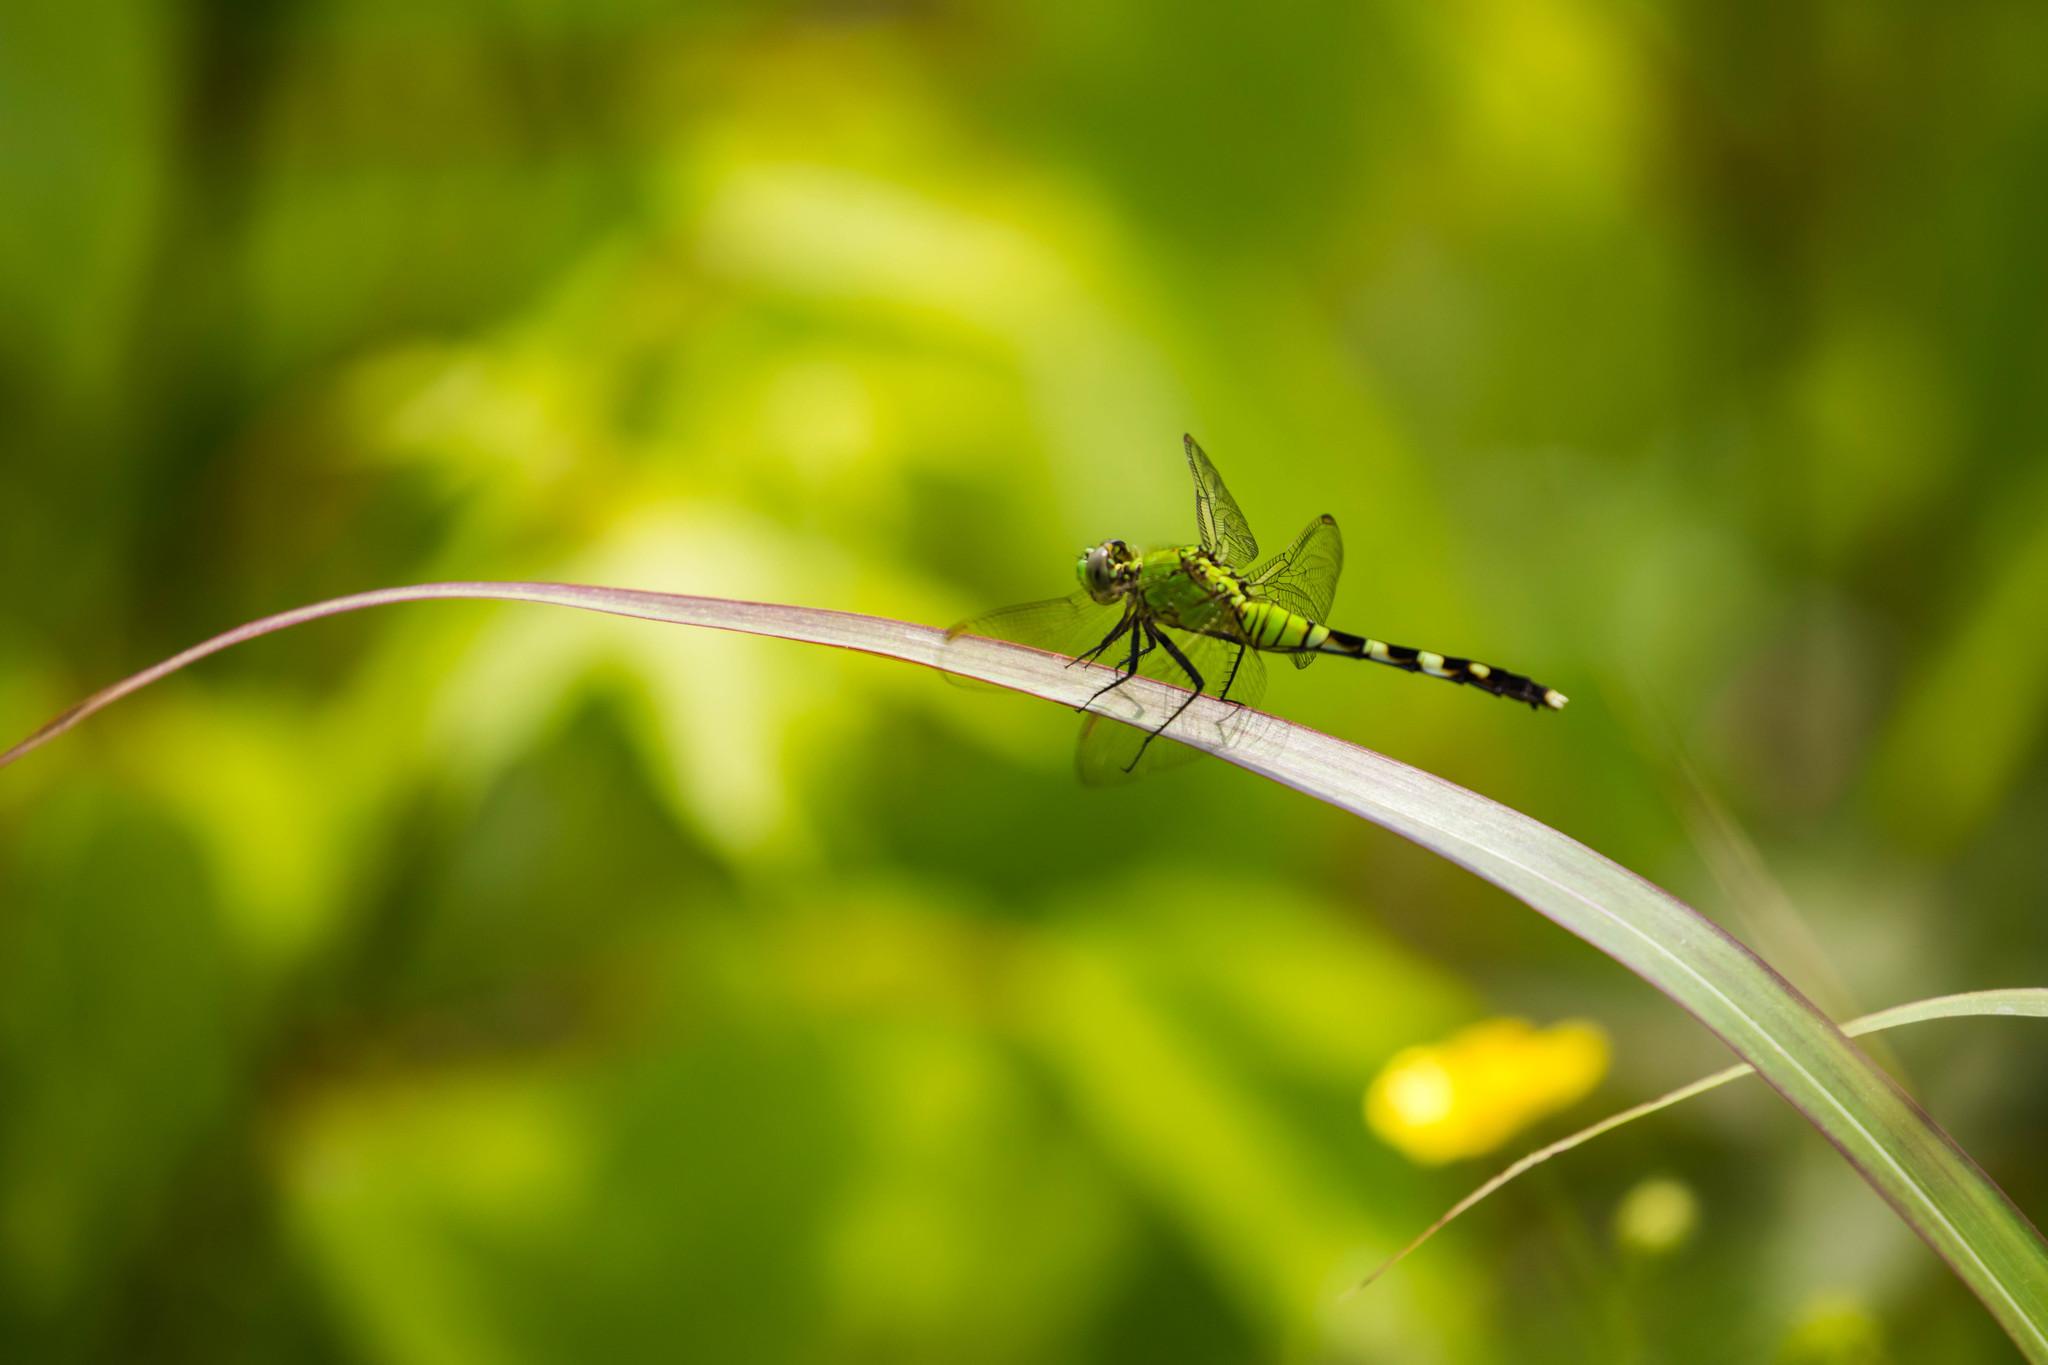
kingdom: Animalia
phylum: Arthropoda
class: Insecta
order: Odonata
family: Libellulidae
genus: Erythemis
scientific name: Erythemis simplicicollis
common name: Eastern pondhawk
